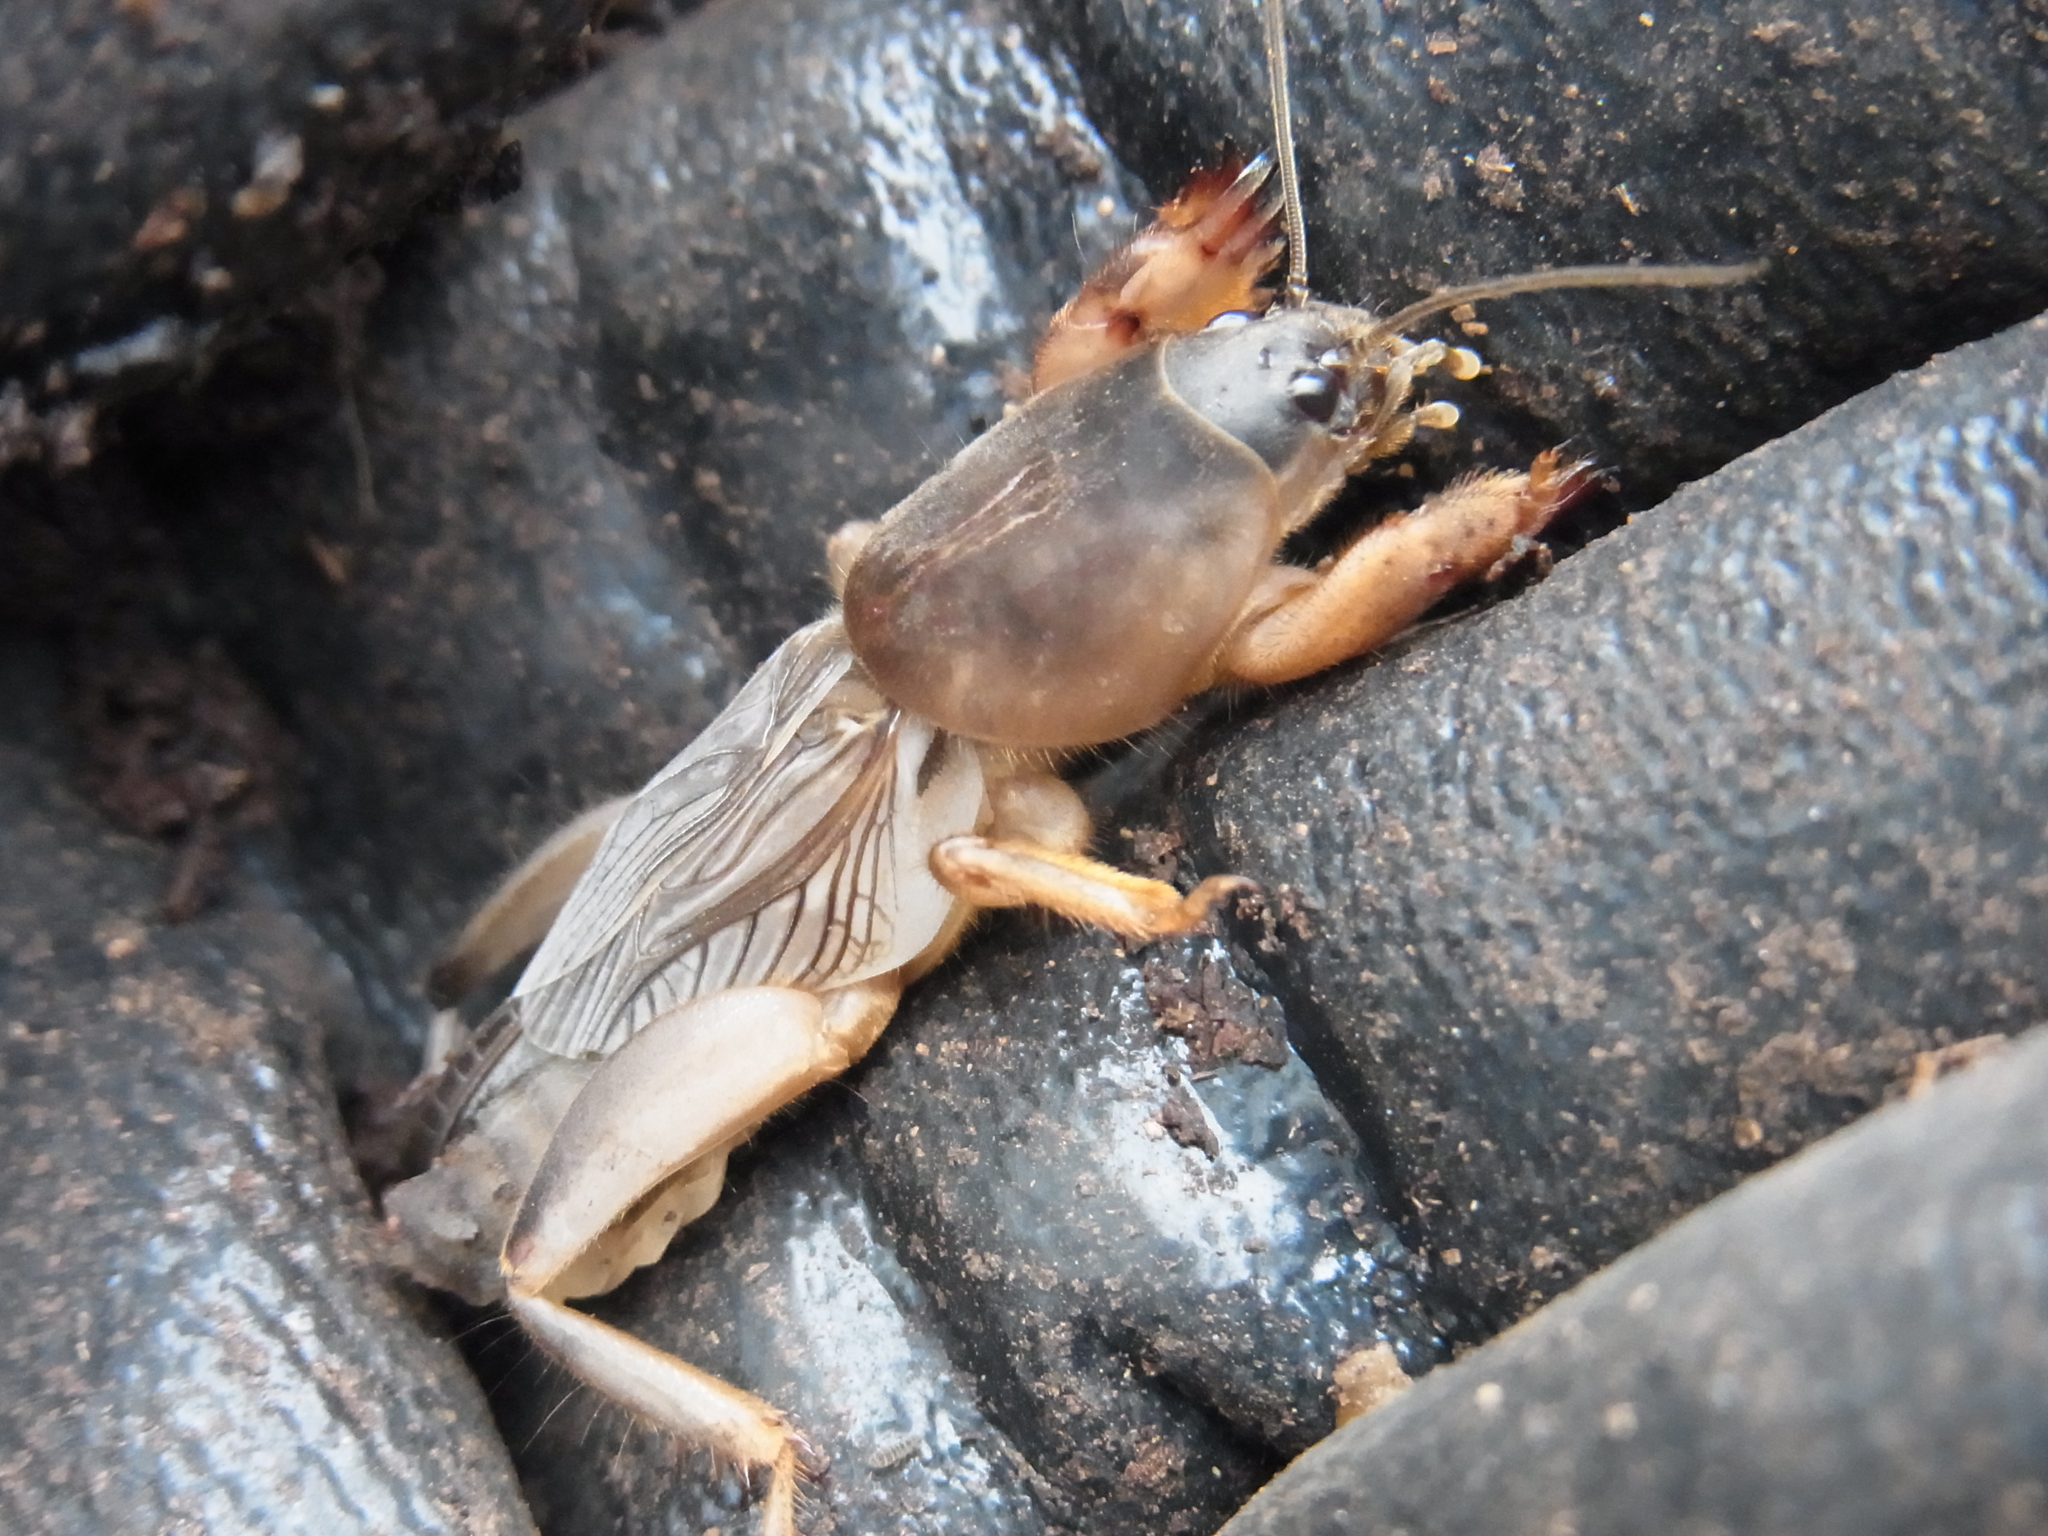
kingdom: Animalia
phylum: Arthropoda
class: Insecta
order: Orthoptera
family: Gryllotalpidae
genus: Gryllotalpa
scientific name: Gryllotalpa orientalis
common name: Grasshopper
